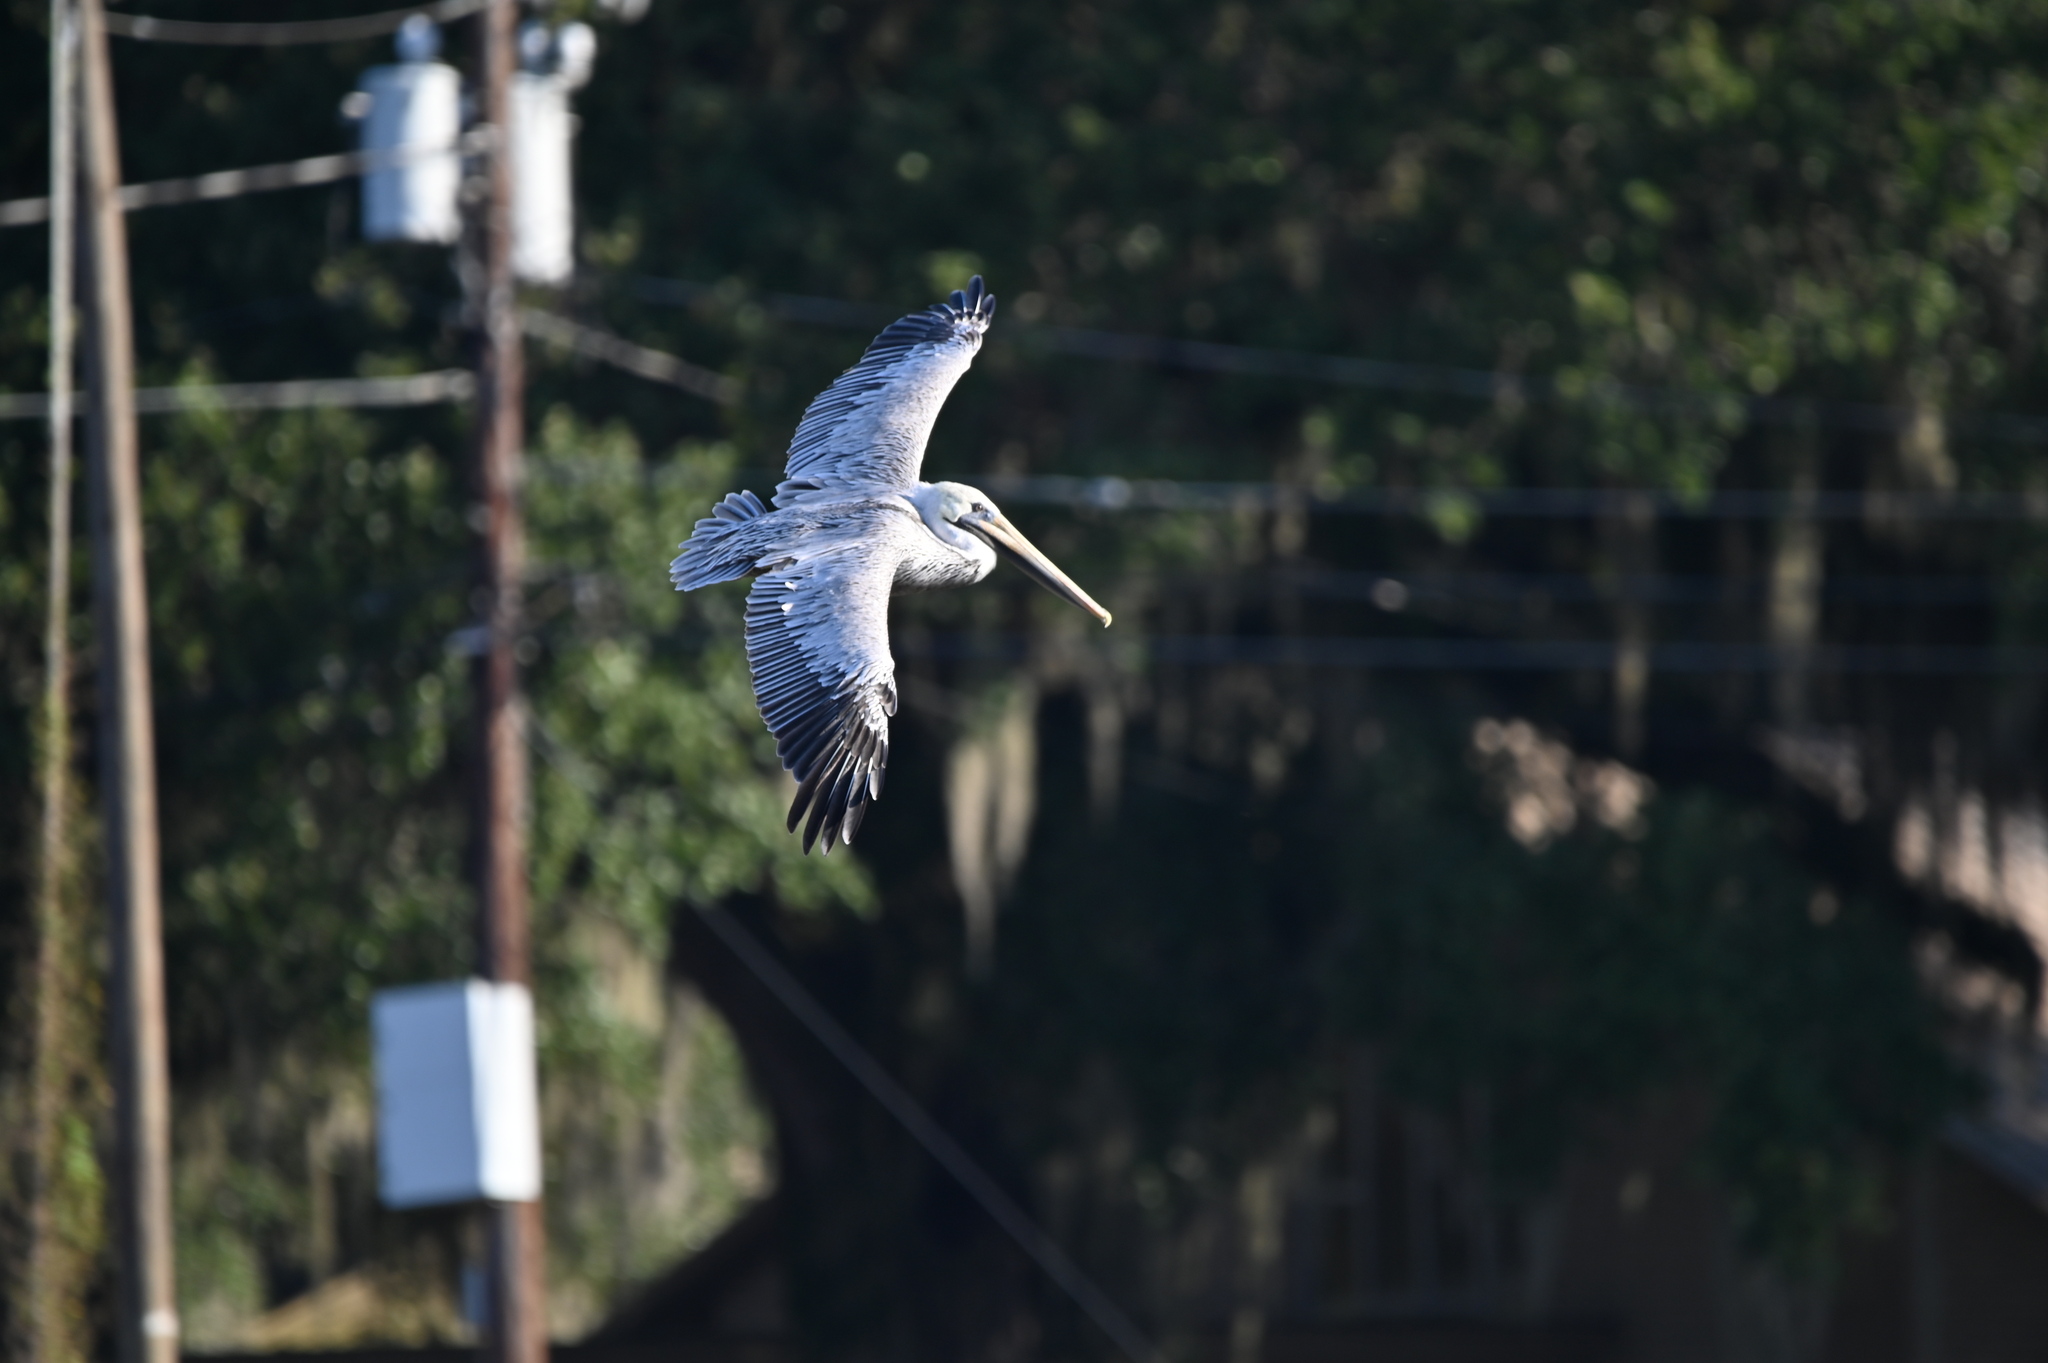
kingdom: Animalia
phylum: Chordata
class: Aves
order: Pelecaniformes
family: Pelecanidae
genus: Pelecanus
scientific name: Pelecanus occidentalis
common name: Brown pelican
